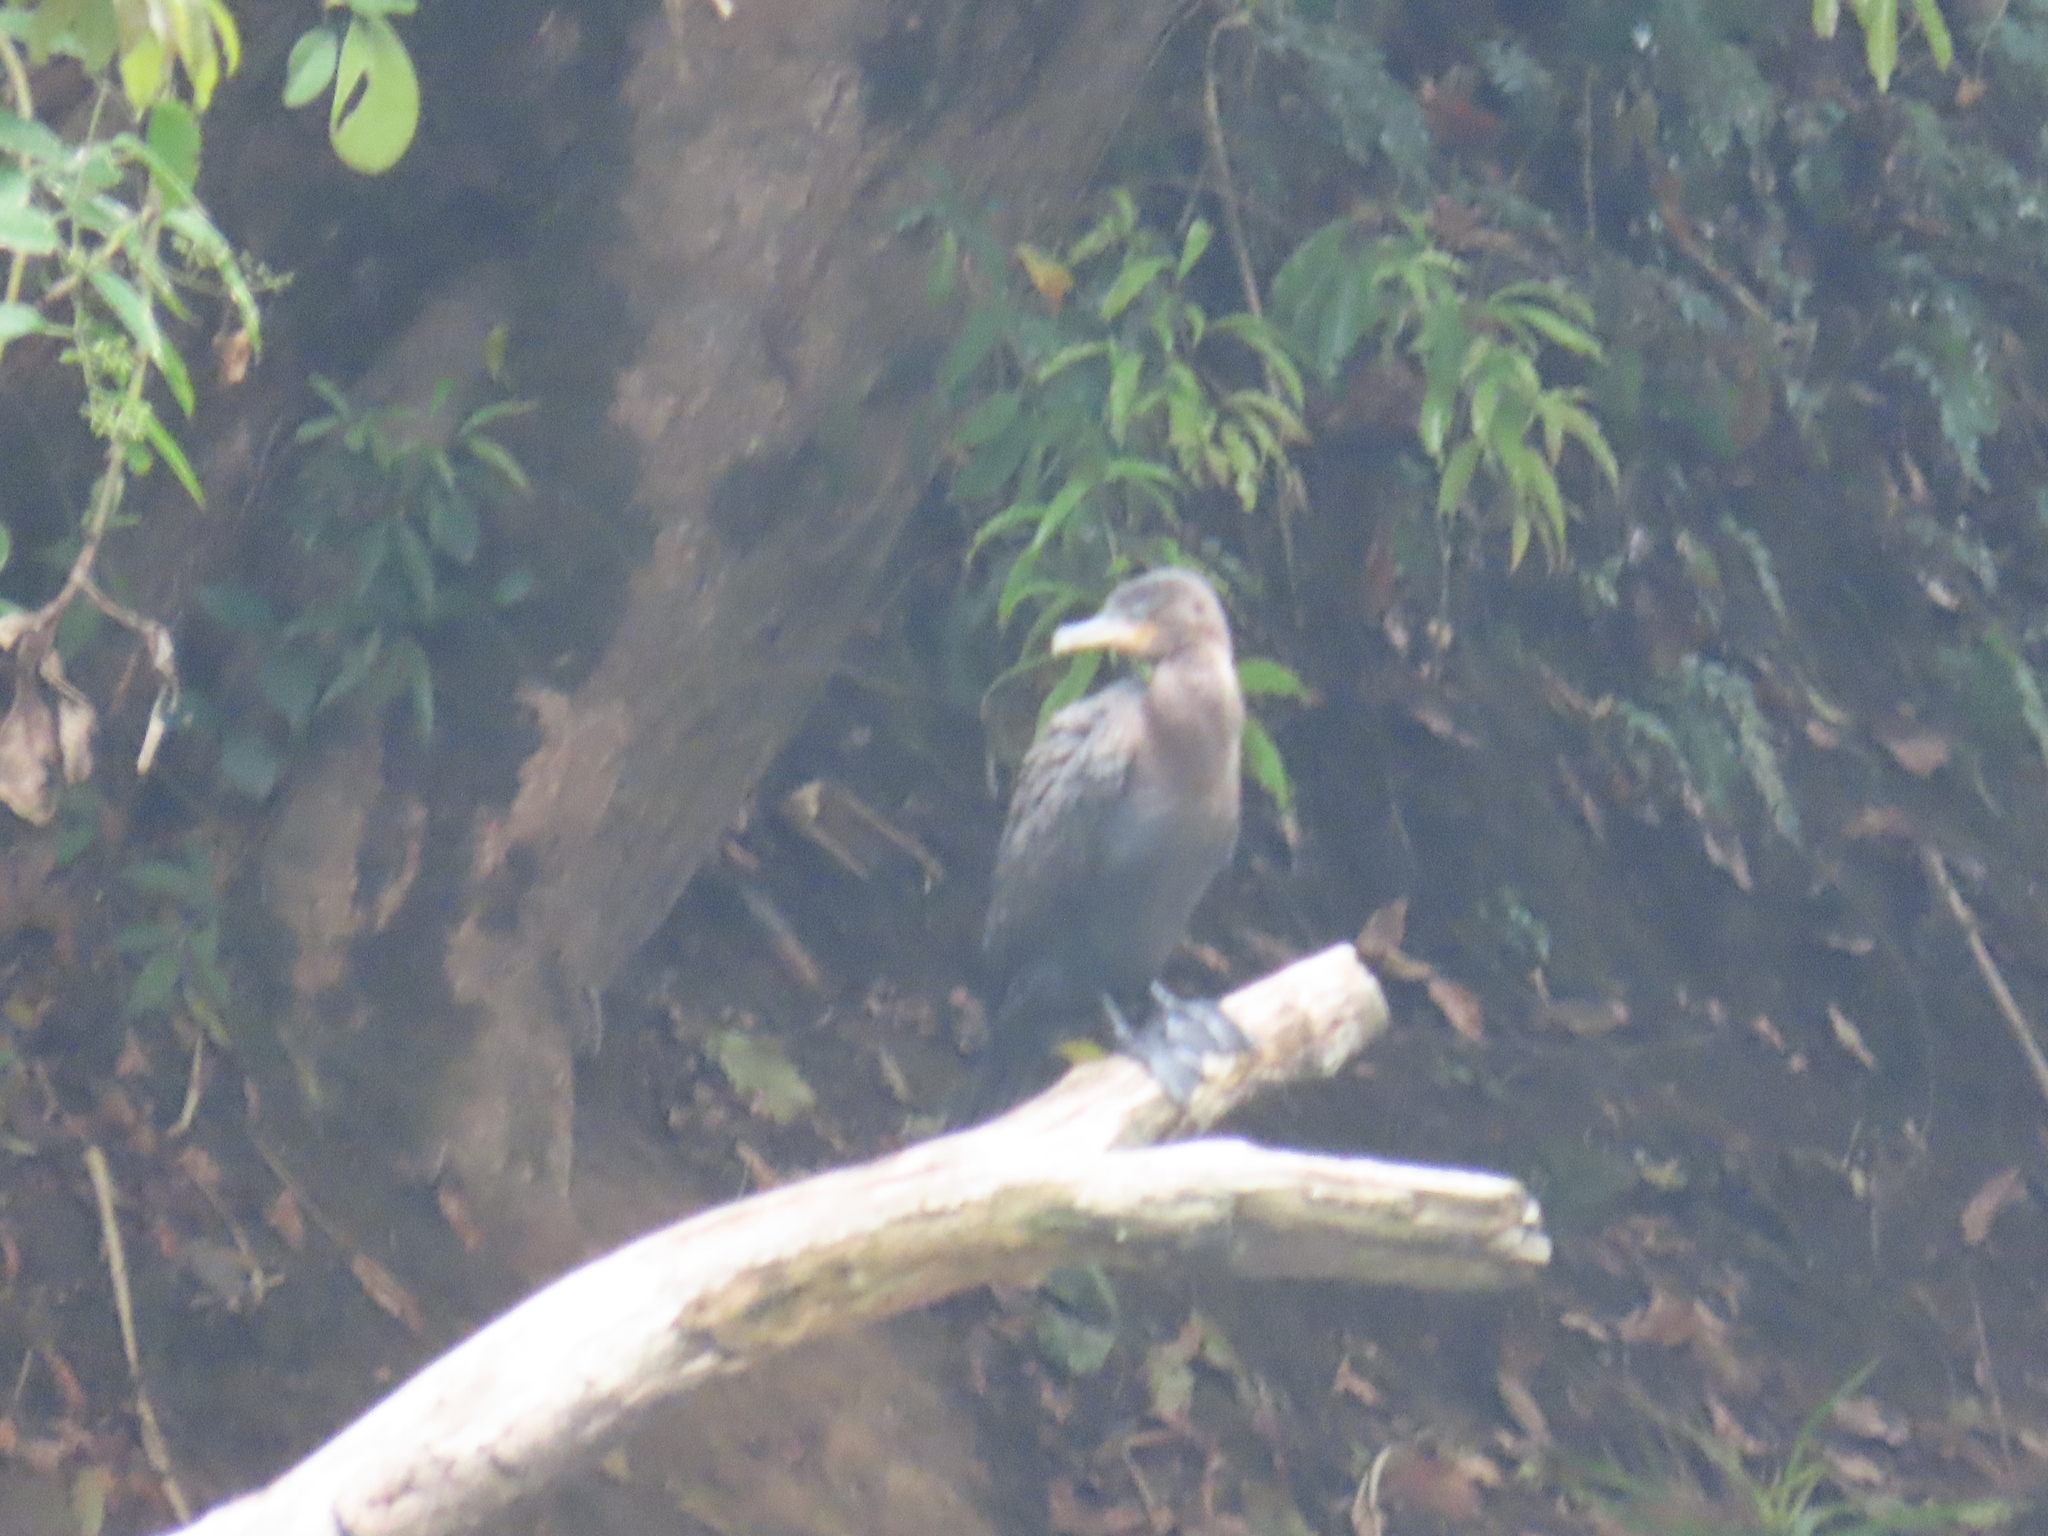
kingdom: Animalia
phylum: Chordata
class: Aves
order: Suliformes
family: Phalacrocoracidae
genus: Phalacrocorax
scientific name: Phalacrocorax brasilianus
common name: Neotropic cormorant
